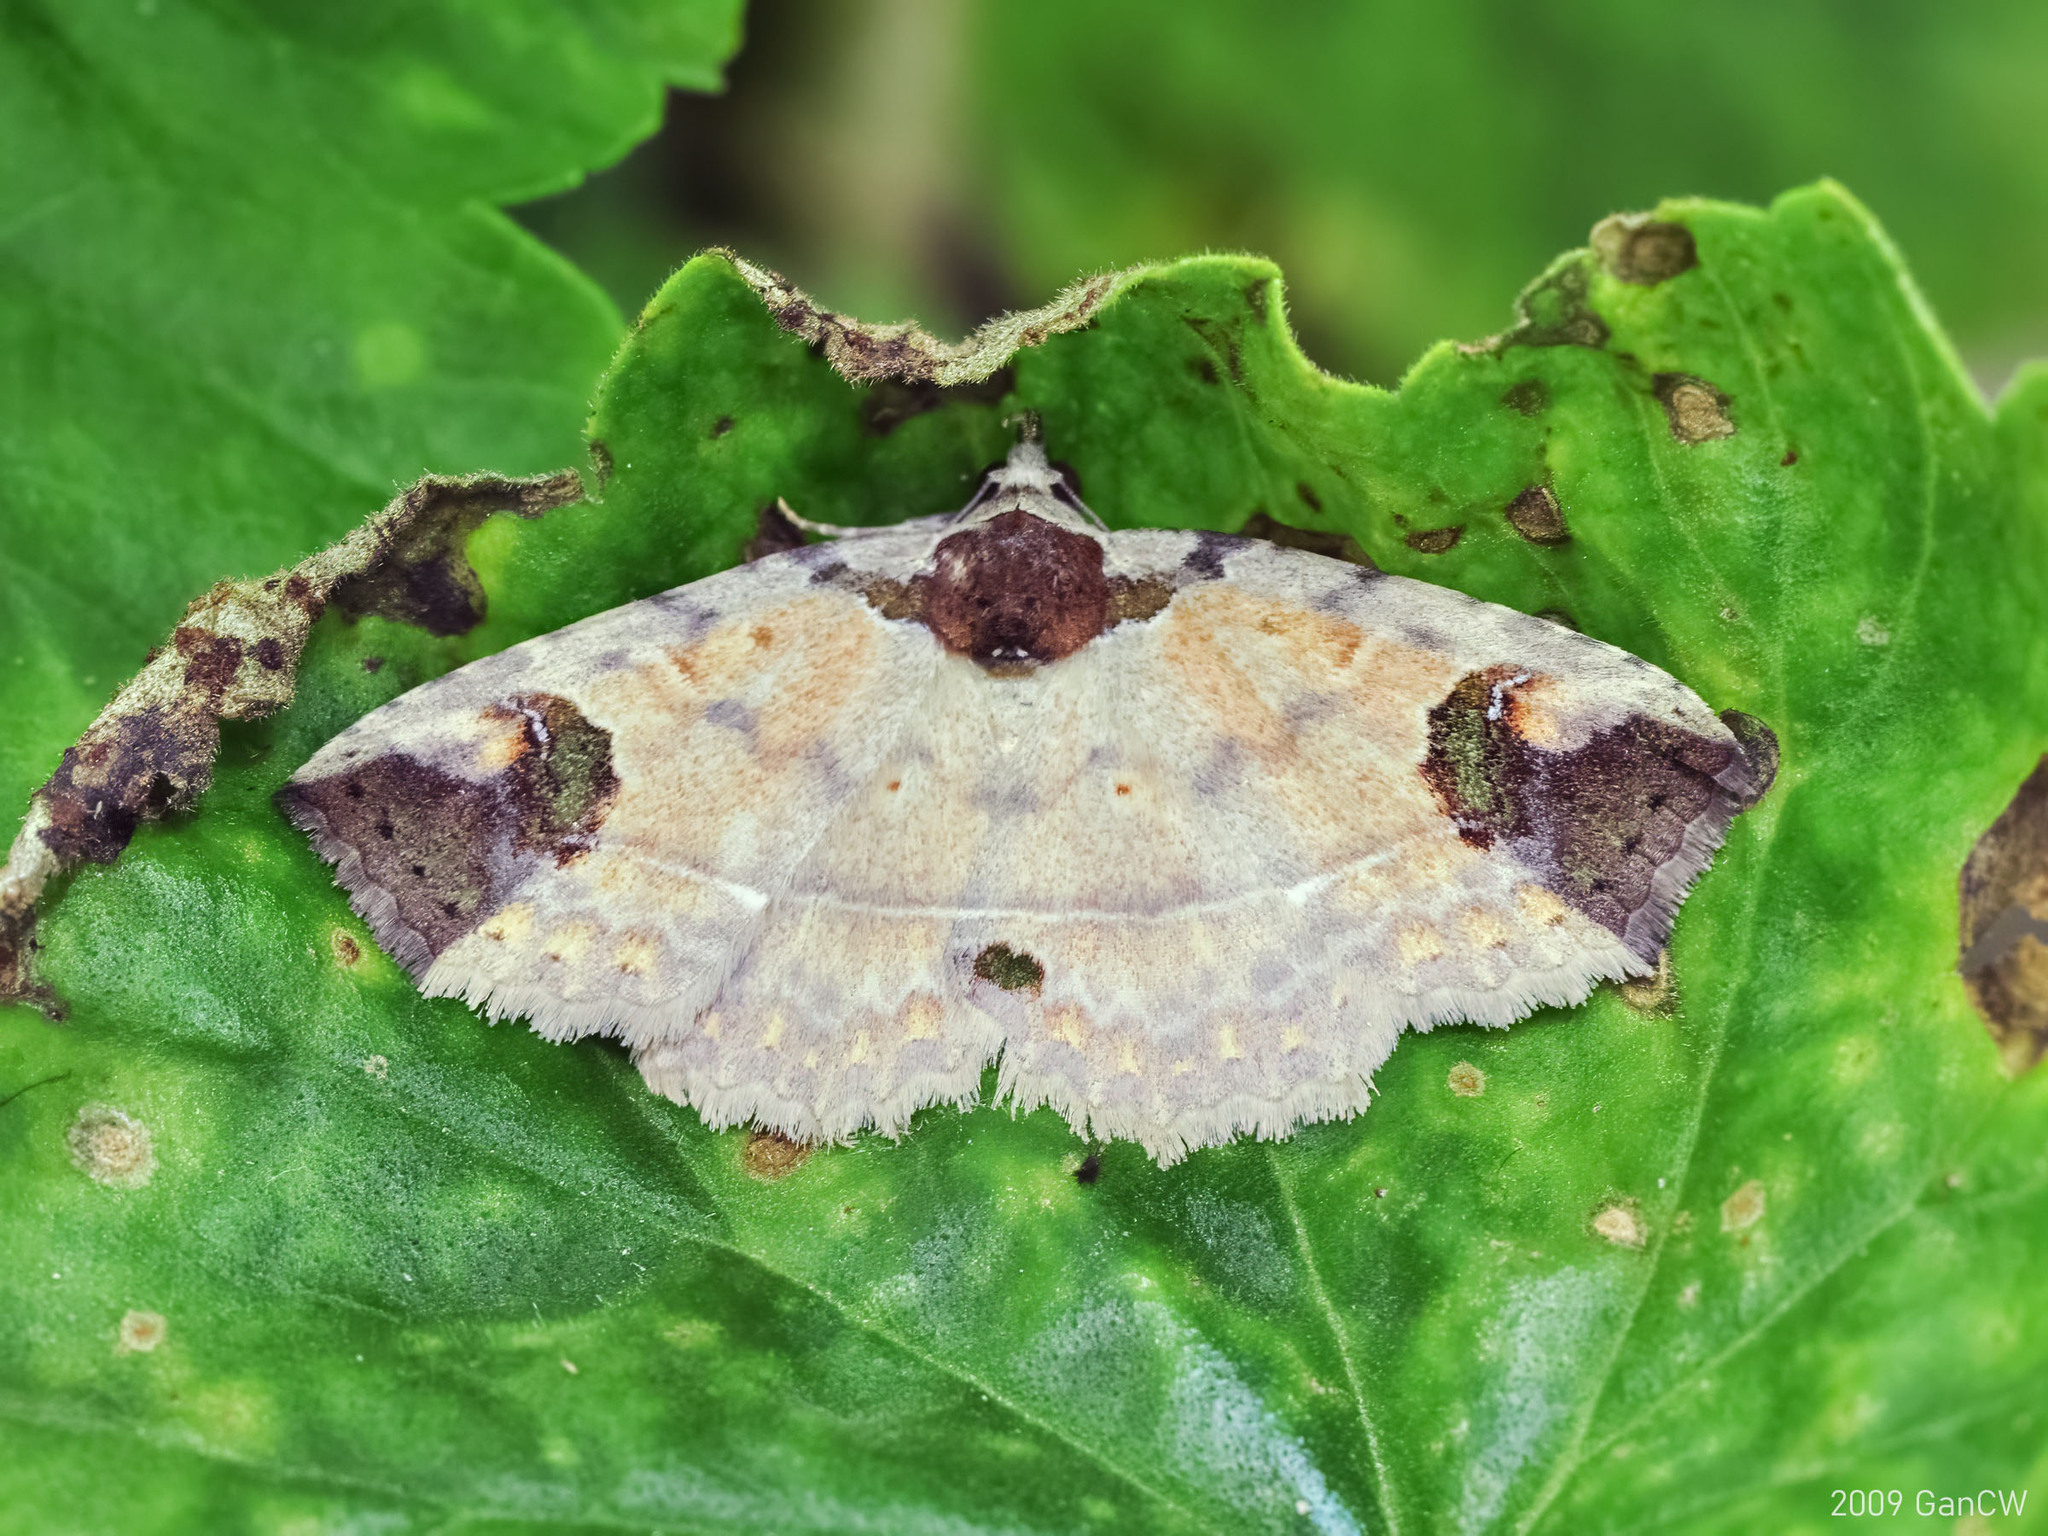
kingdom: Animalia
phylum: Arthropoda
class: Insecta
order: Lepidoptera
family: Erebidae
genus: Tamba
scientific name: Tamba magniplaga
